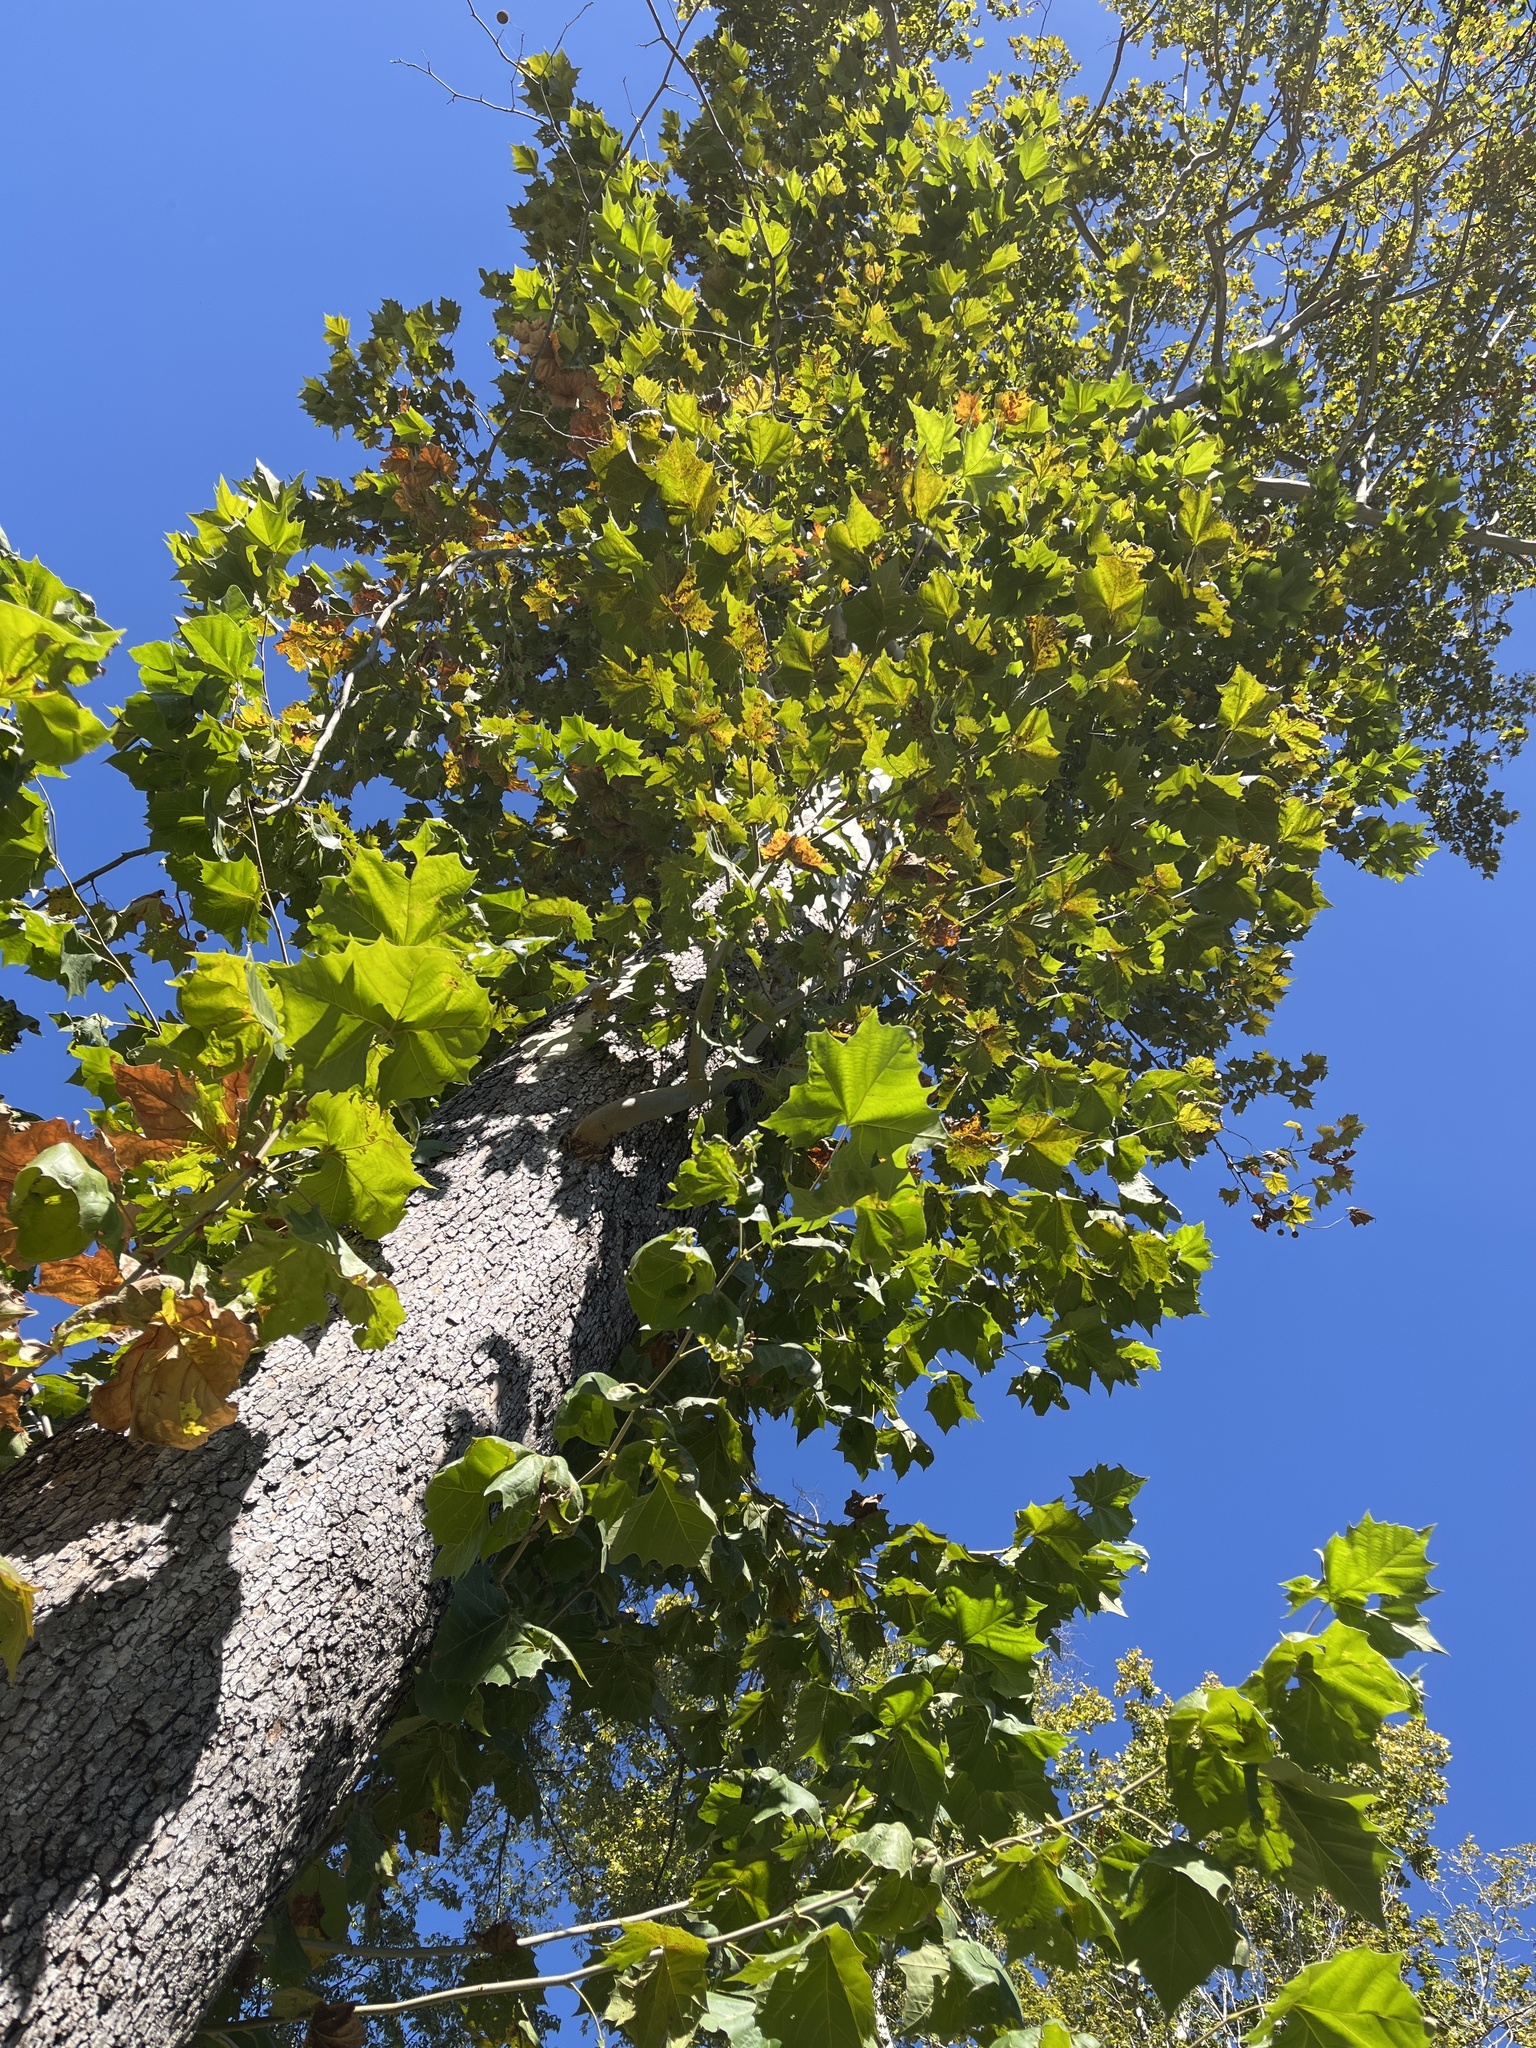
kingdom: Plantae
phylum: Tracheophyta
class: Magnoliopsida
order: Proteales
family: Platanaceae
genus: Platanus
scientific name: Platanus occidentalis
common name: American sycamore
